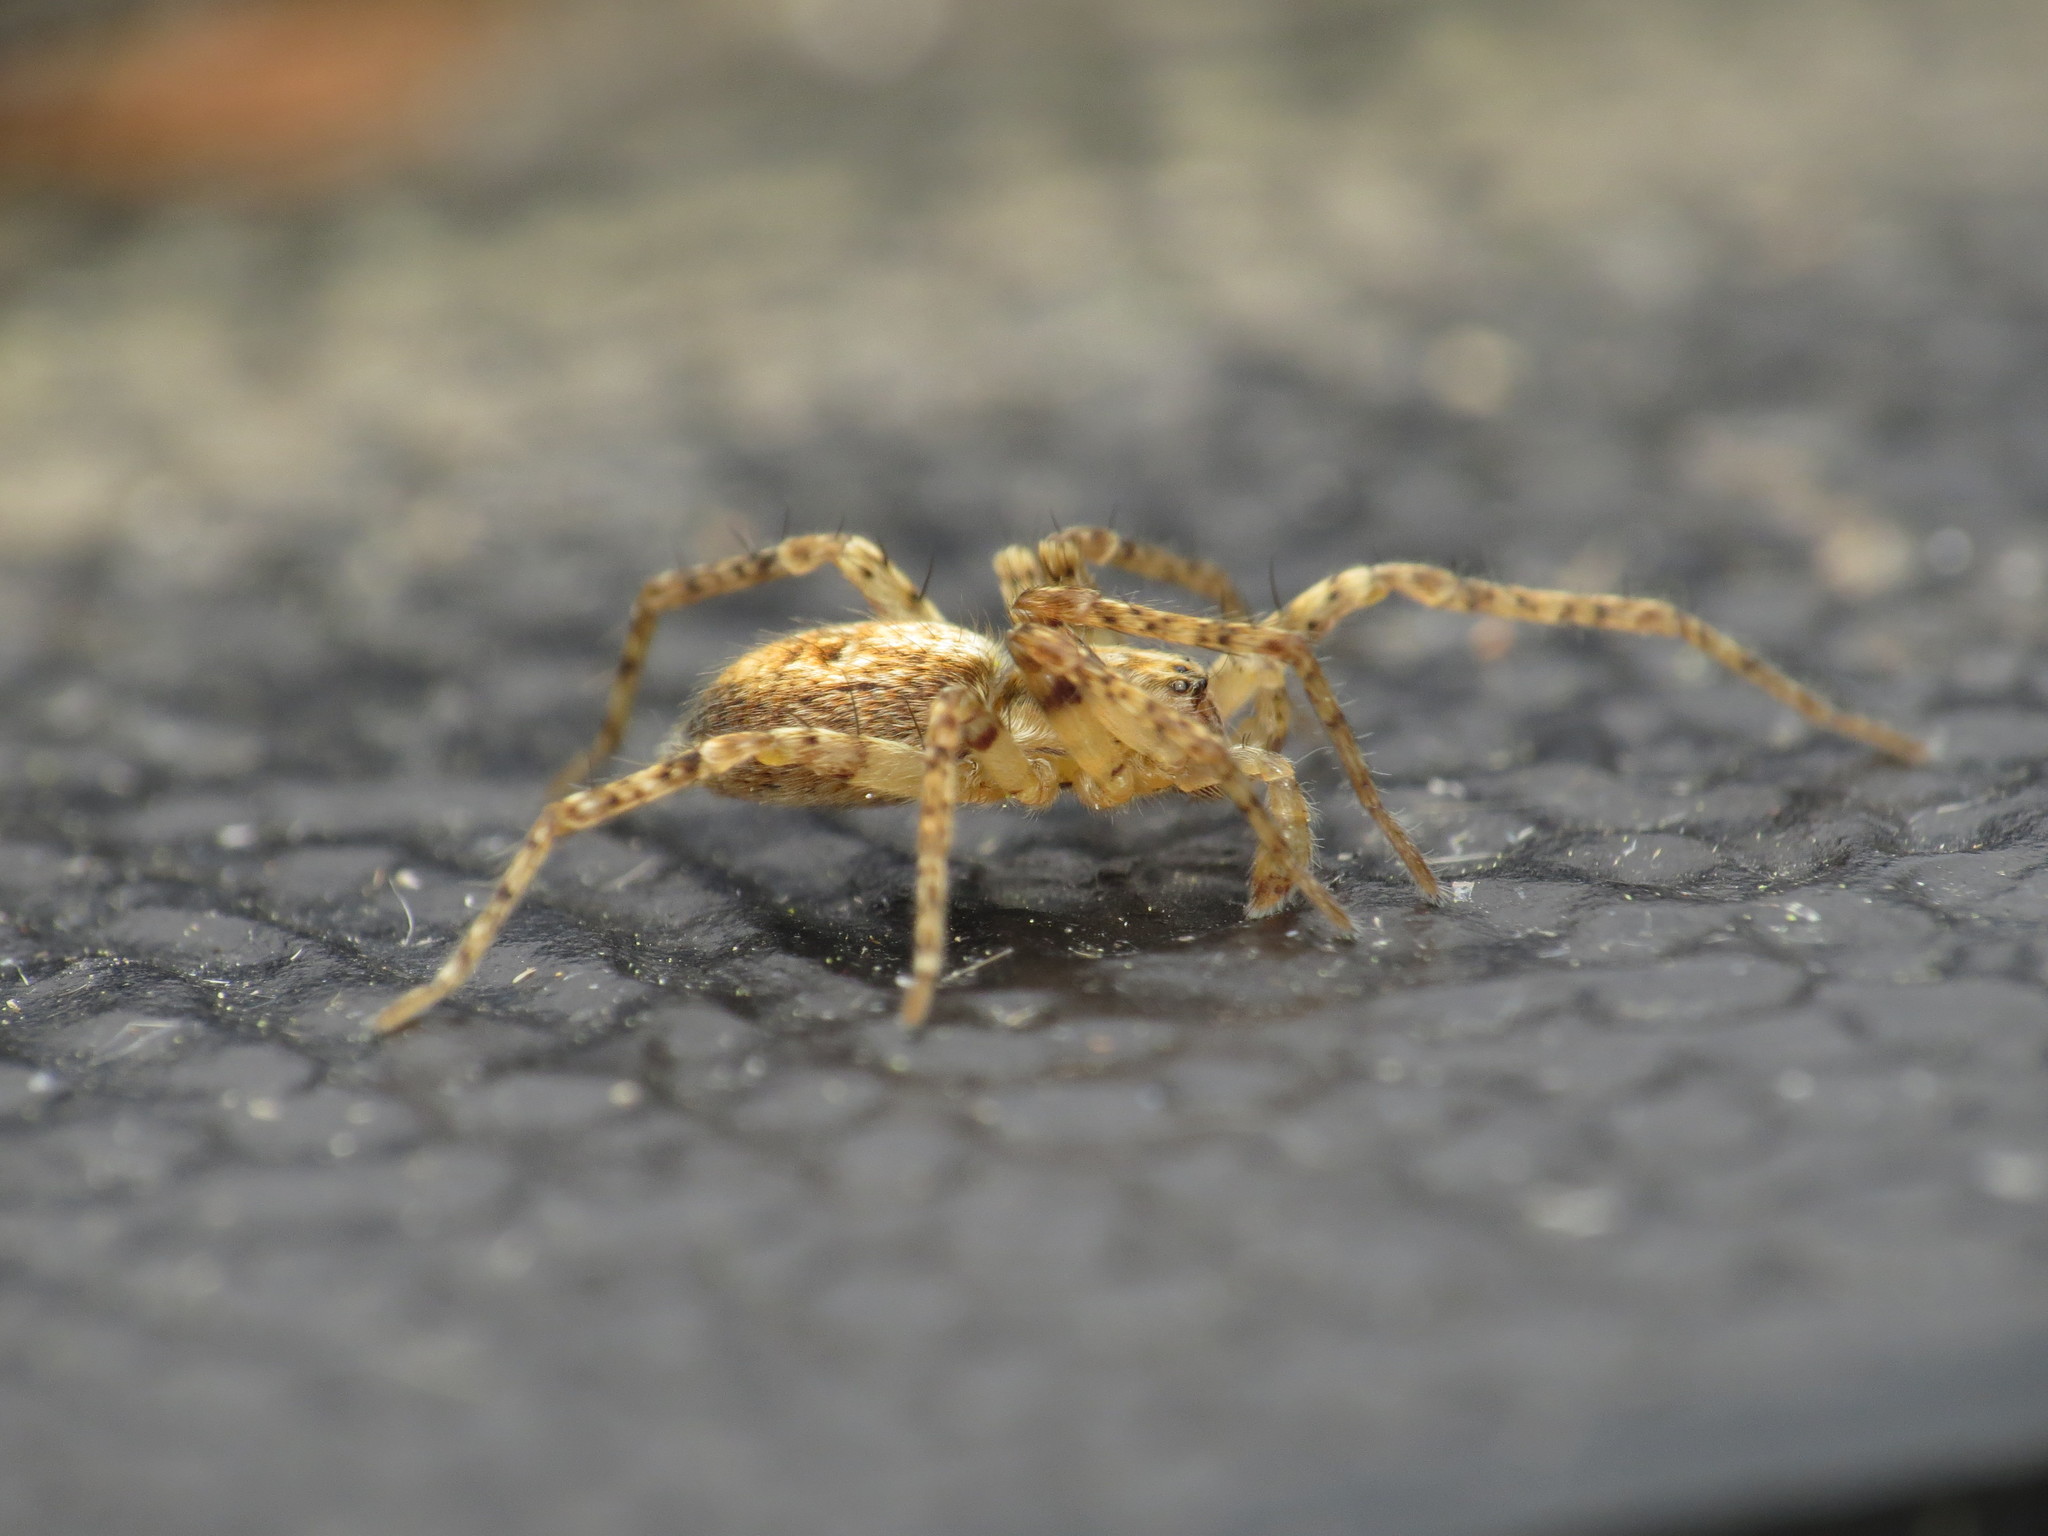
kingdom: Animalia
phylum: Arthropoda
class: Arachnida
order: Araneae
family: Anyphaenidae
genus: Anyphaena
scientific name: Anyphaena accentuata
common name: Buzzing spider
